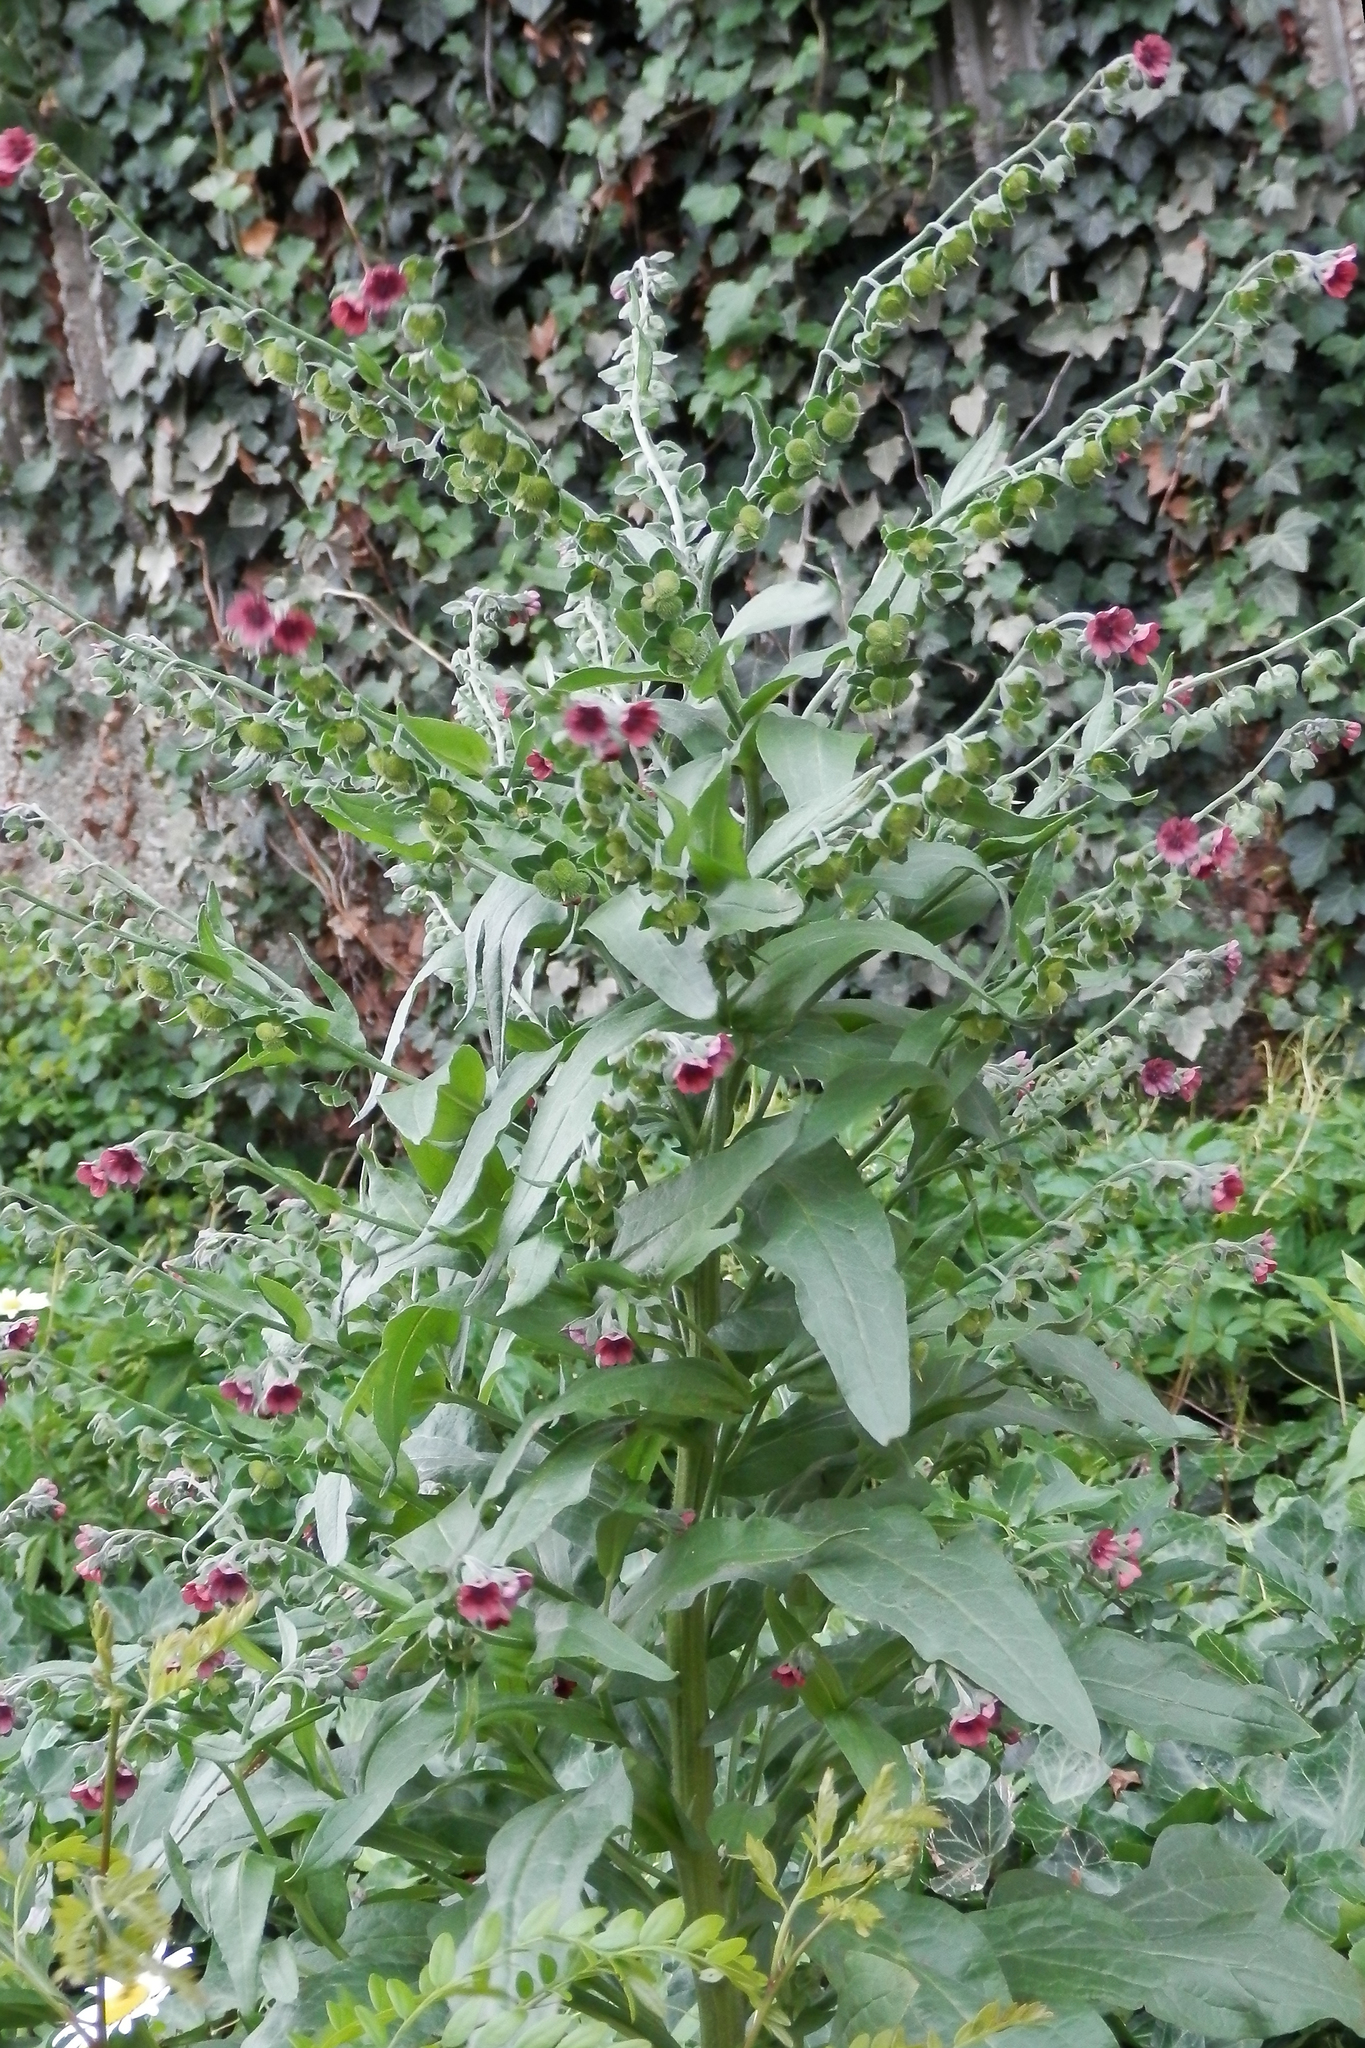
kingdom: Plantae
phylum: Tracheophyta
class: Magnoliopsida
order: Boraginales
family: Boraginaceae
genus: Cynoglossum
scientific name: Cynoglossum officinale
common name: Hound's-tongue
